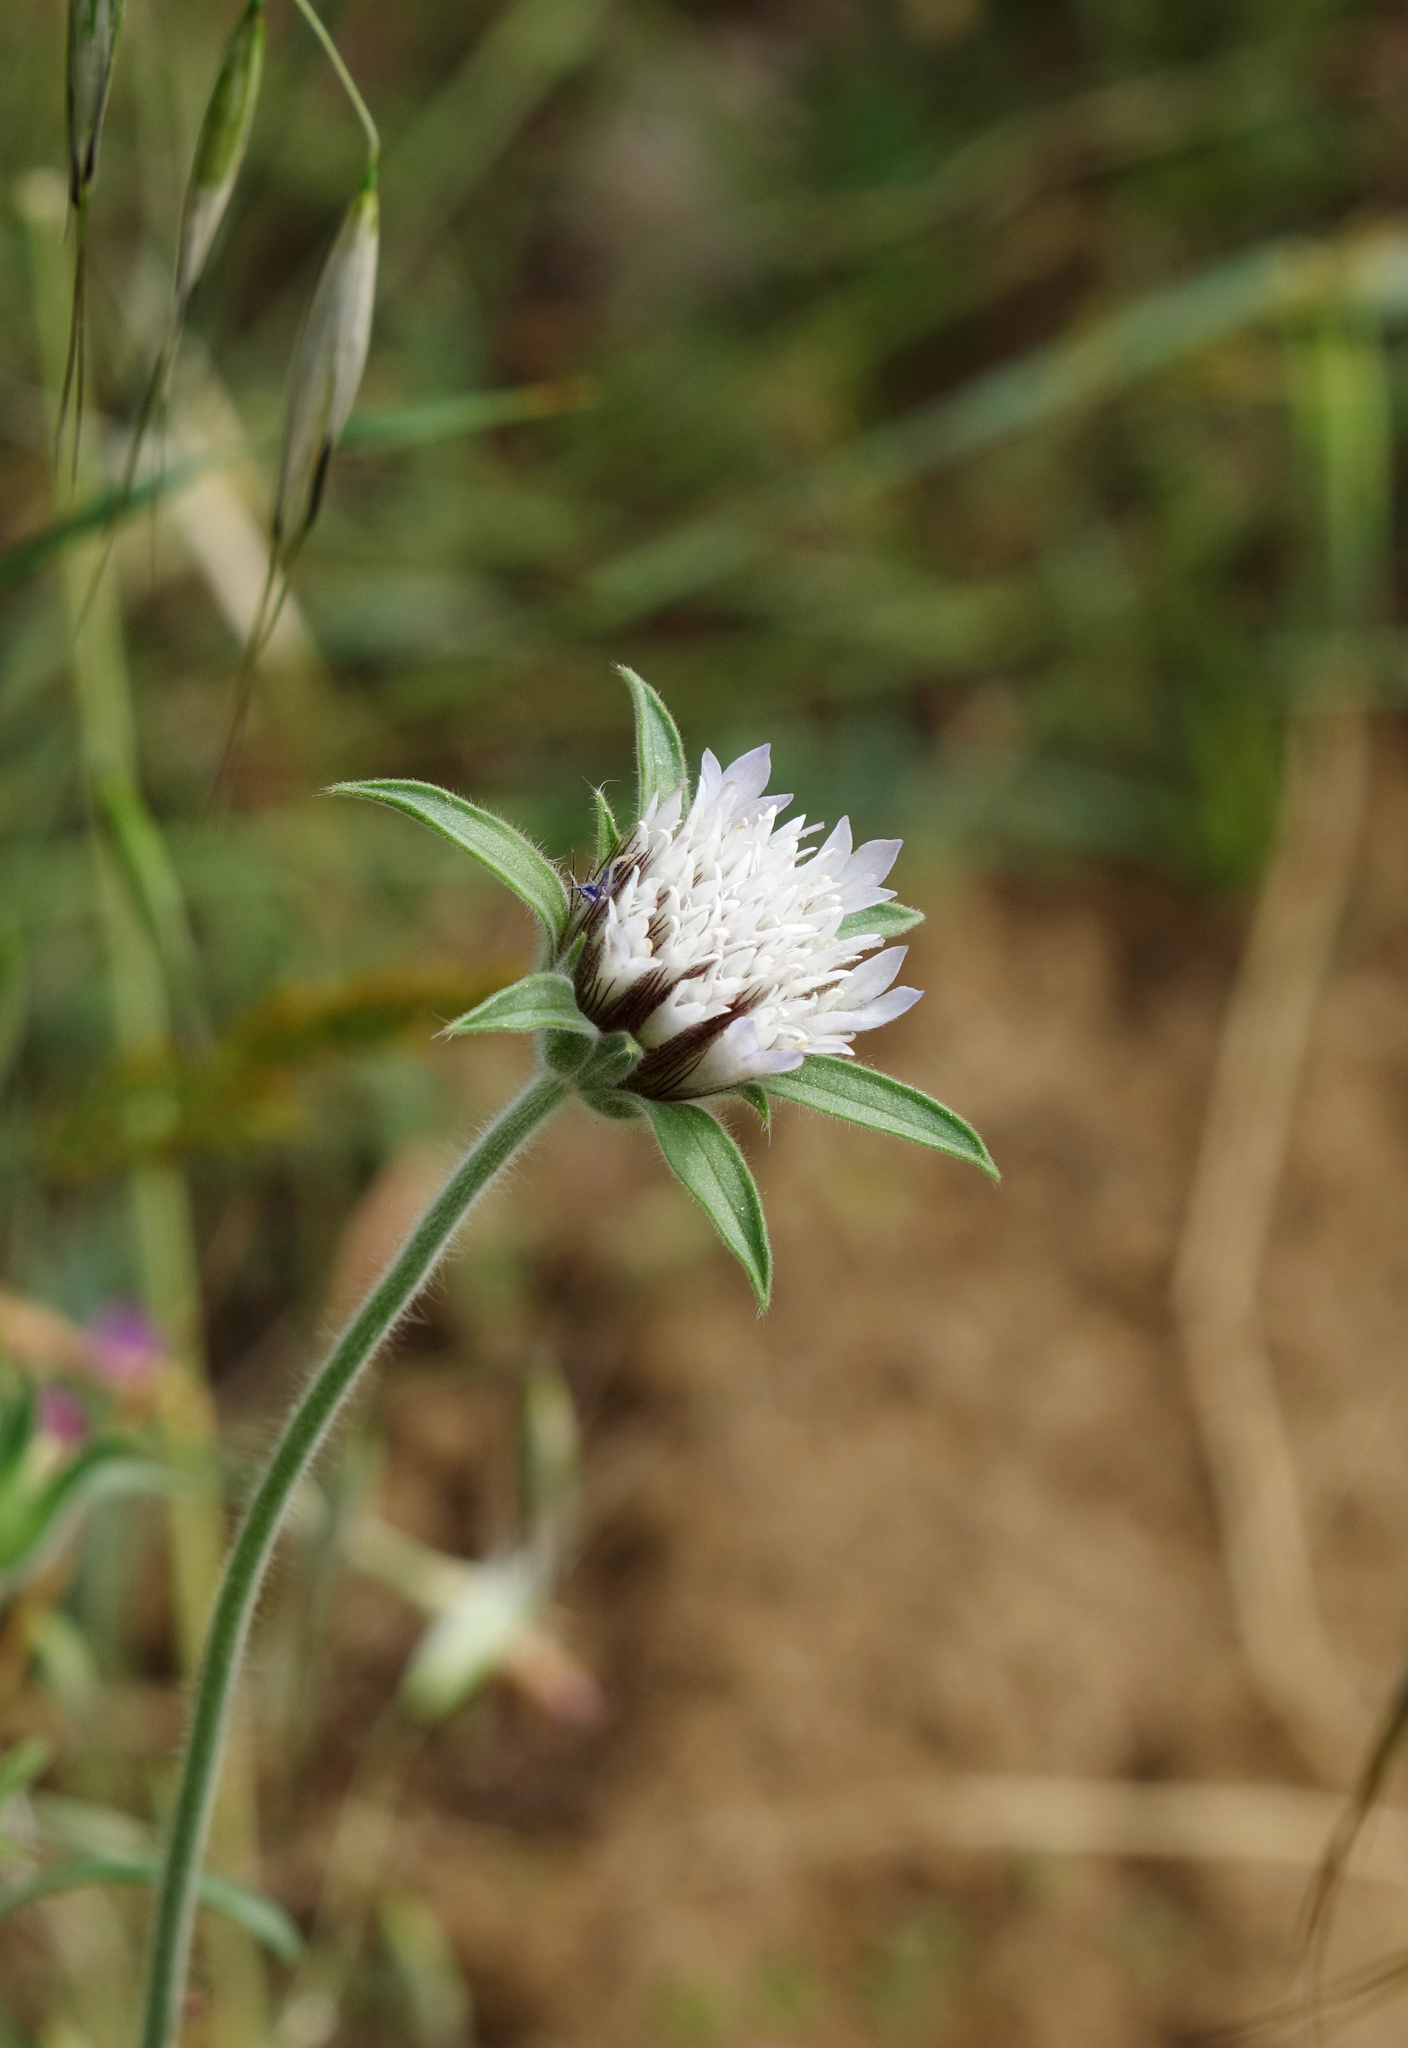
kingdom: Plantae
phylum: Tracheophyta
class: Magnoliopsida
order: Dipsacales
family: Caprifoliaceae
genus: Pterocephalus
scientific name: Pterocephalus plumosus
